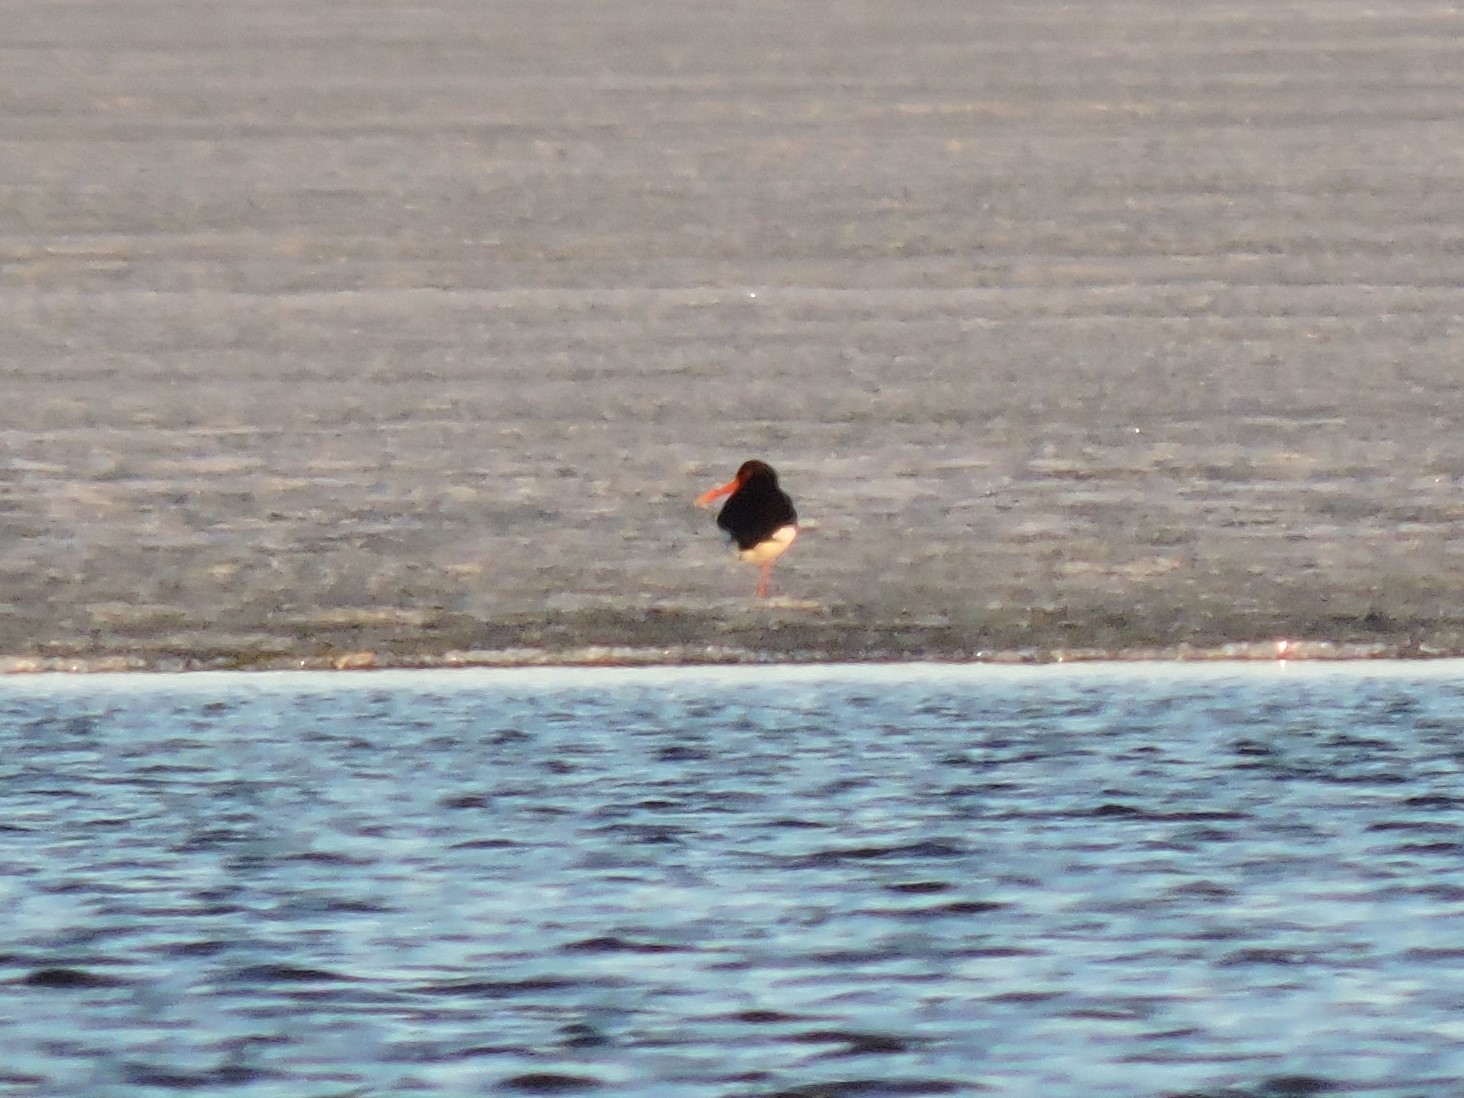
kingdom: Animalia
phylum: Chordata
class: Aves
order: Charadriiformes
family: Haematopodidae
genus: Haematopus
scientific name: Haematopus ostralegus
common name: Eurasian oystercatcher
